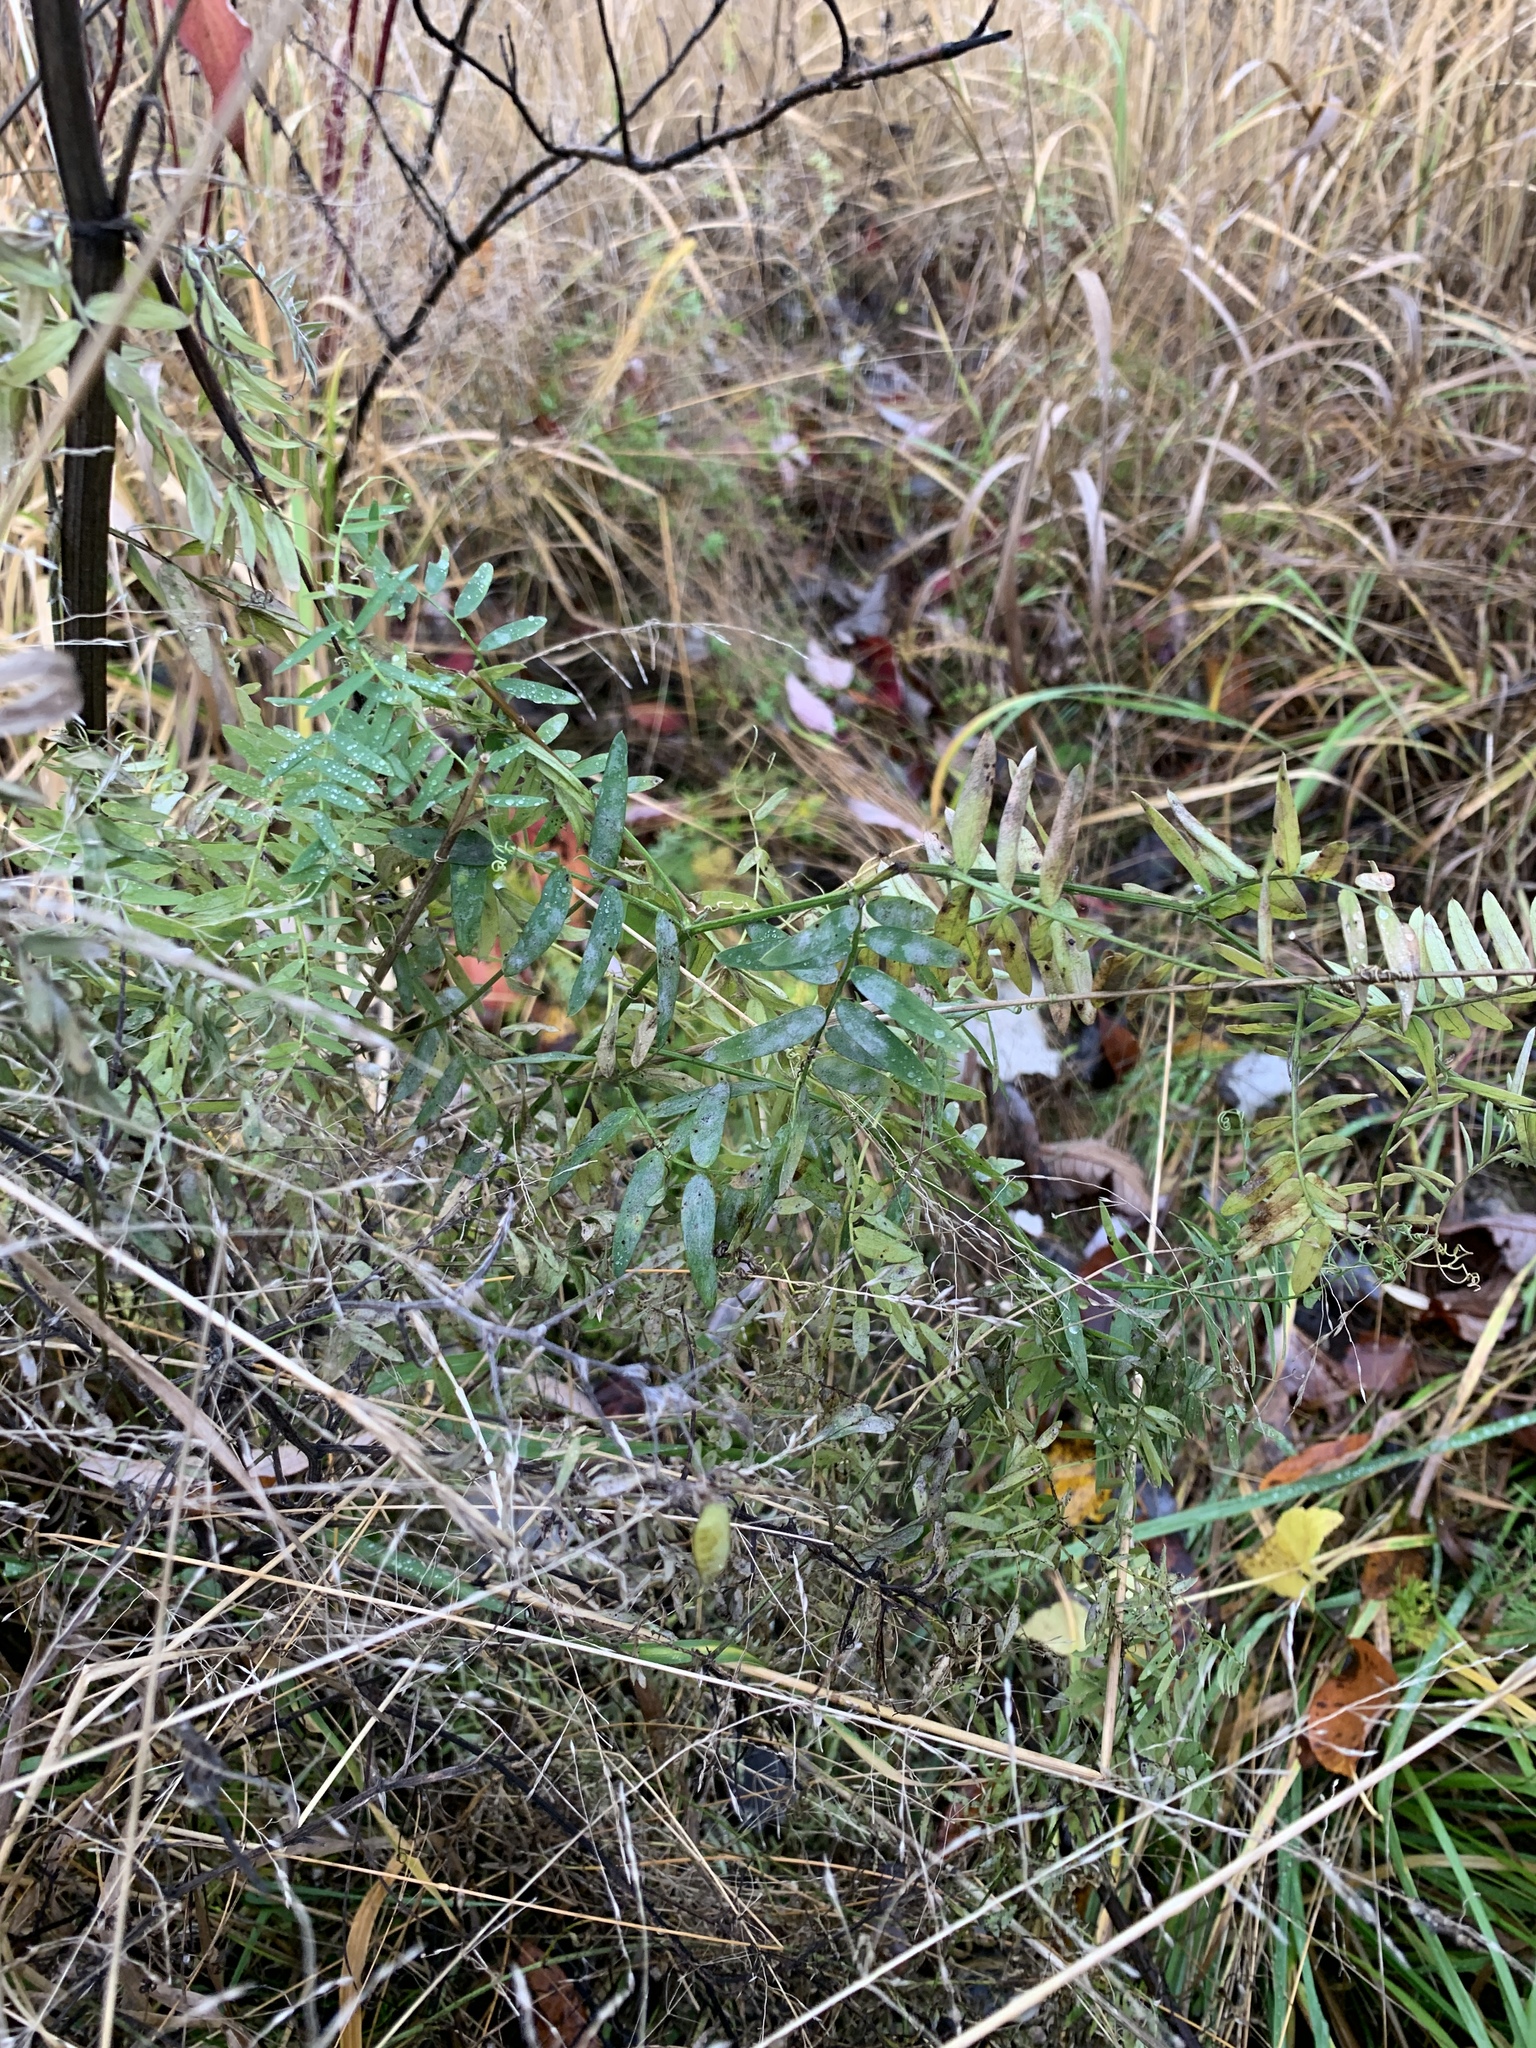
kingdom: Plantae
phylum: Tracheophyta
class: Magnoliopsida
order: Fabales
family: Fabaceae
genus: Vicia
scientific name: Vicia cracca
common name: Bird vetch
